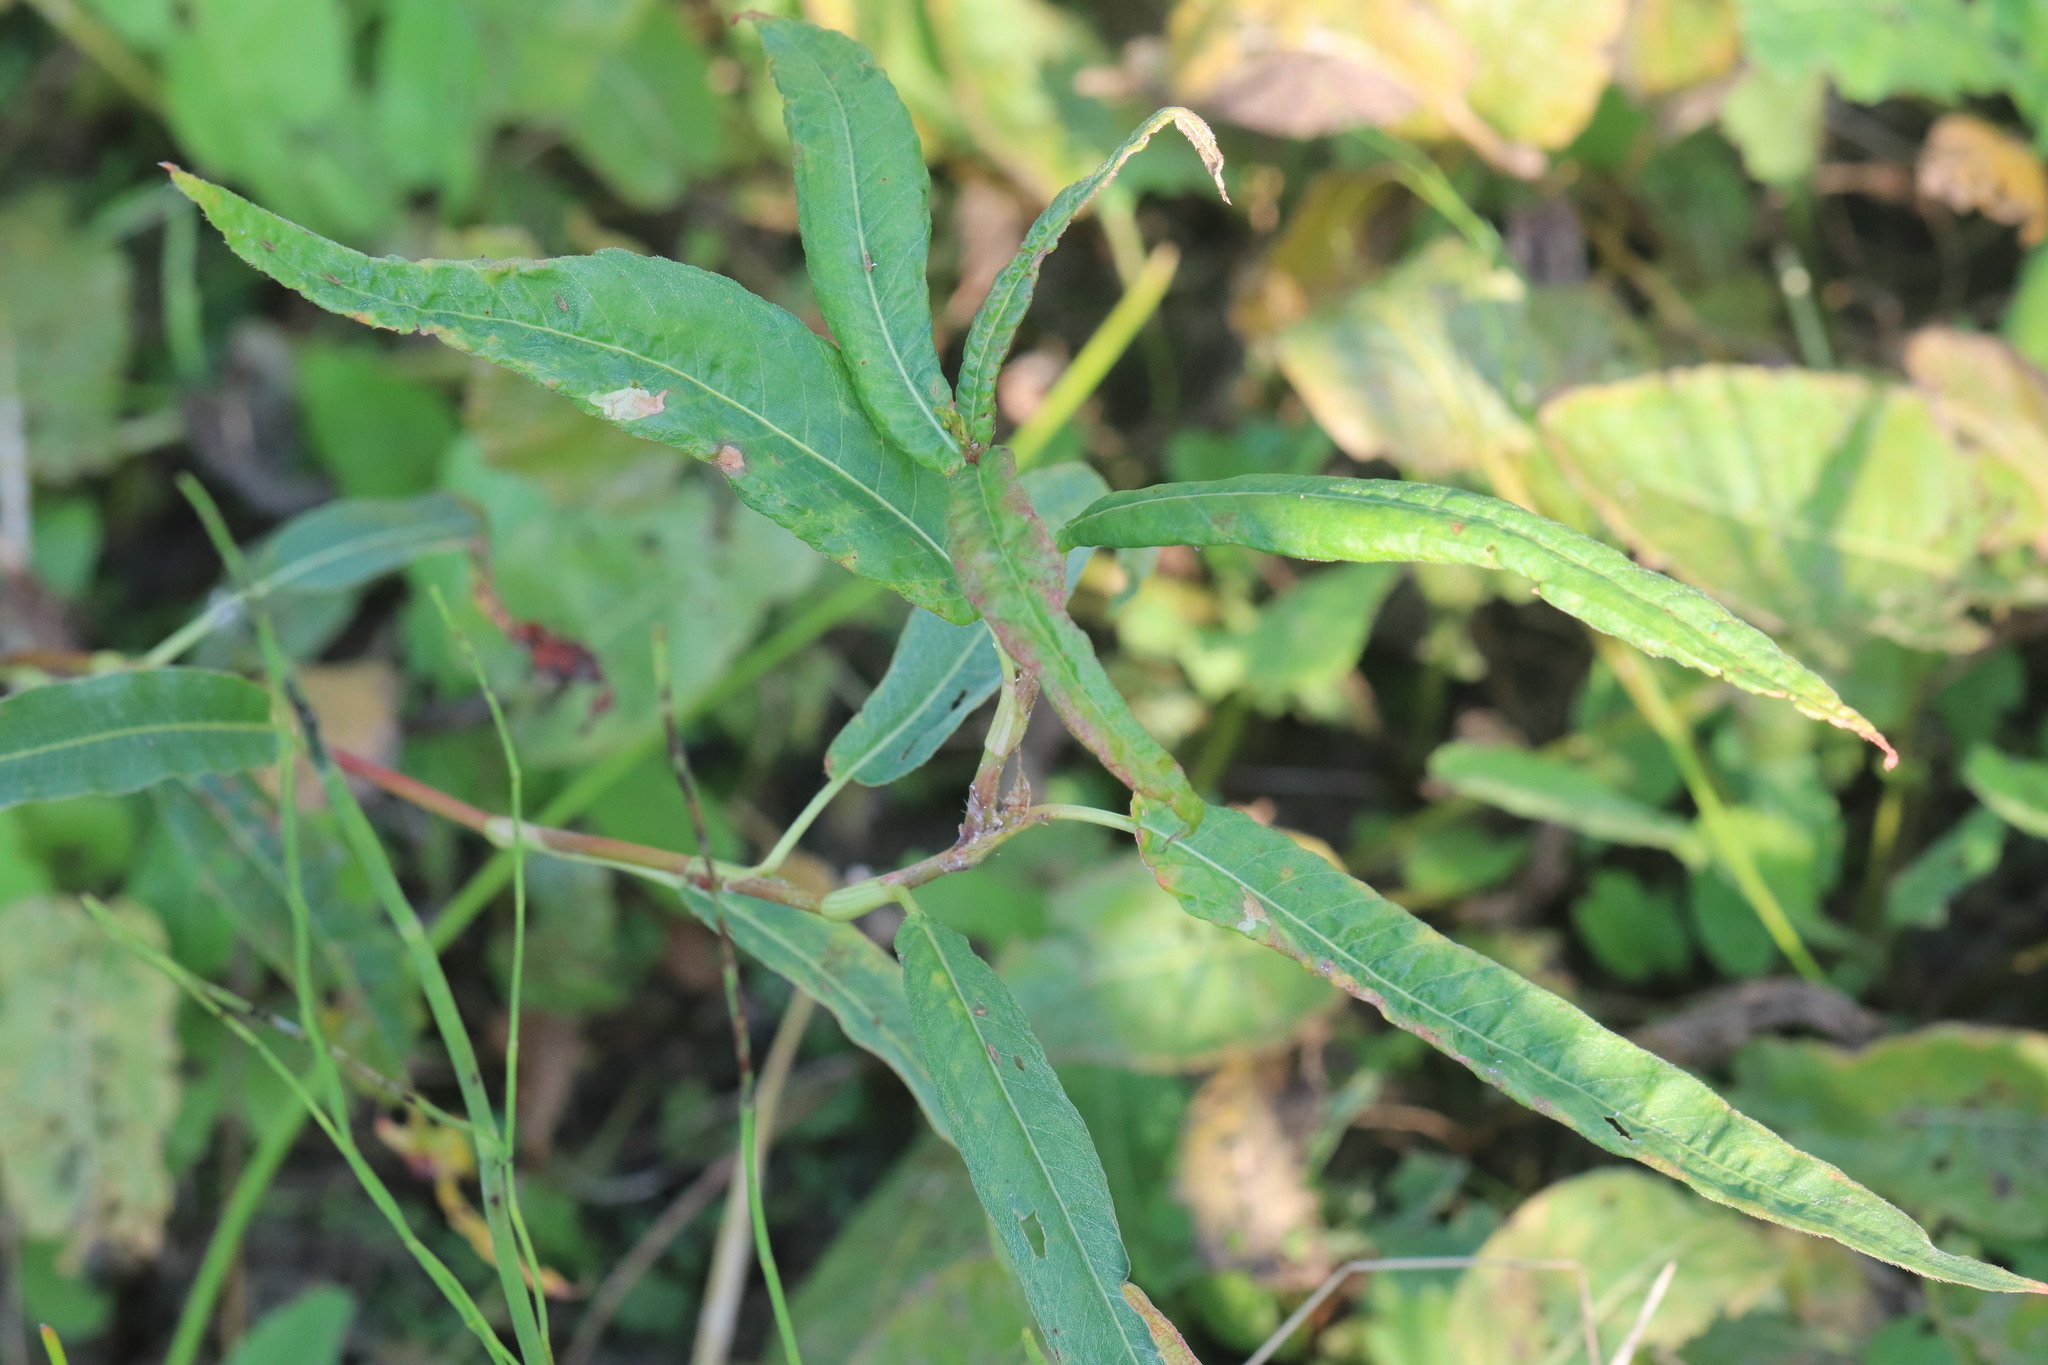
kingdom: Plantae
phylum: Tracheophyta
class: Magnoliopsida
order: Caryophyllales
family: Polygonaceae
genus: Persicaria
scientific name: Persicaria amphibia
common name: Amphibious bistort
